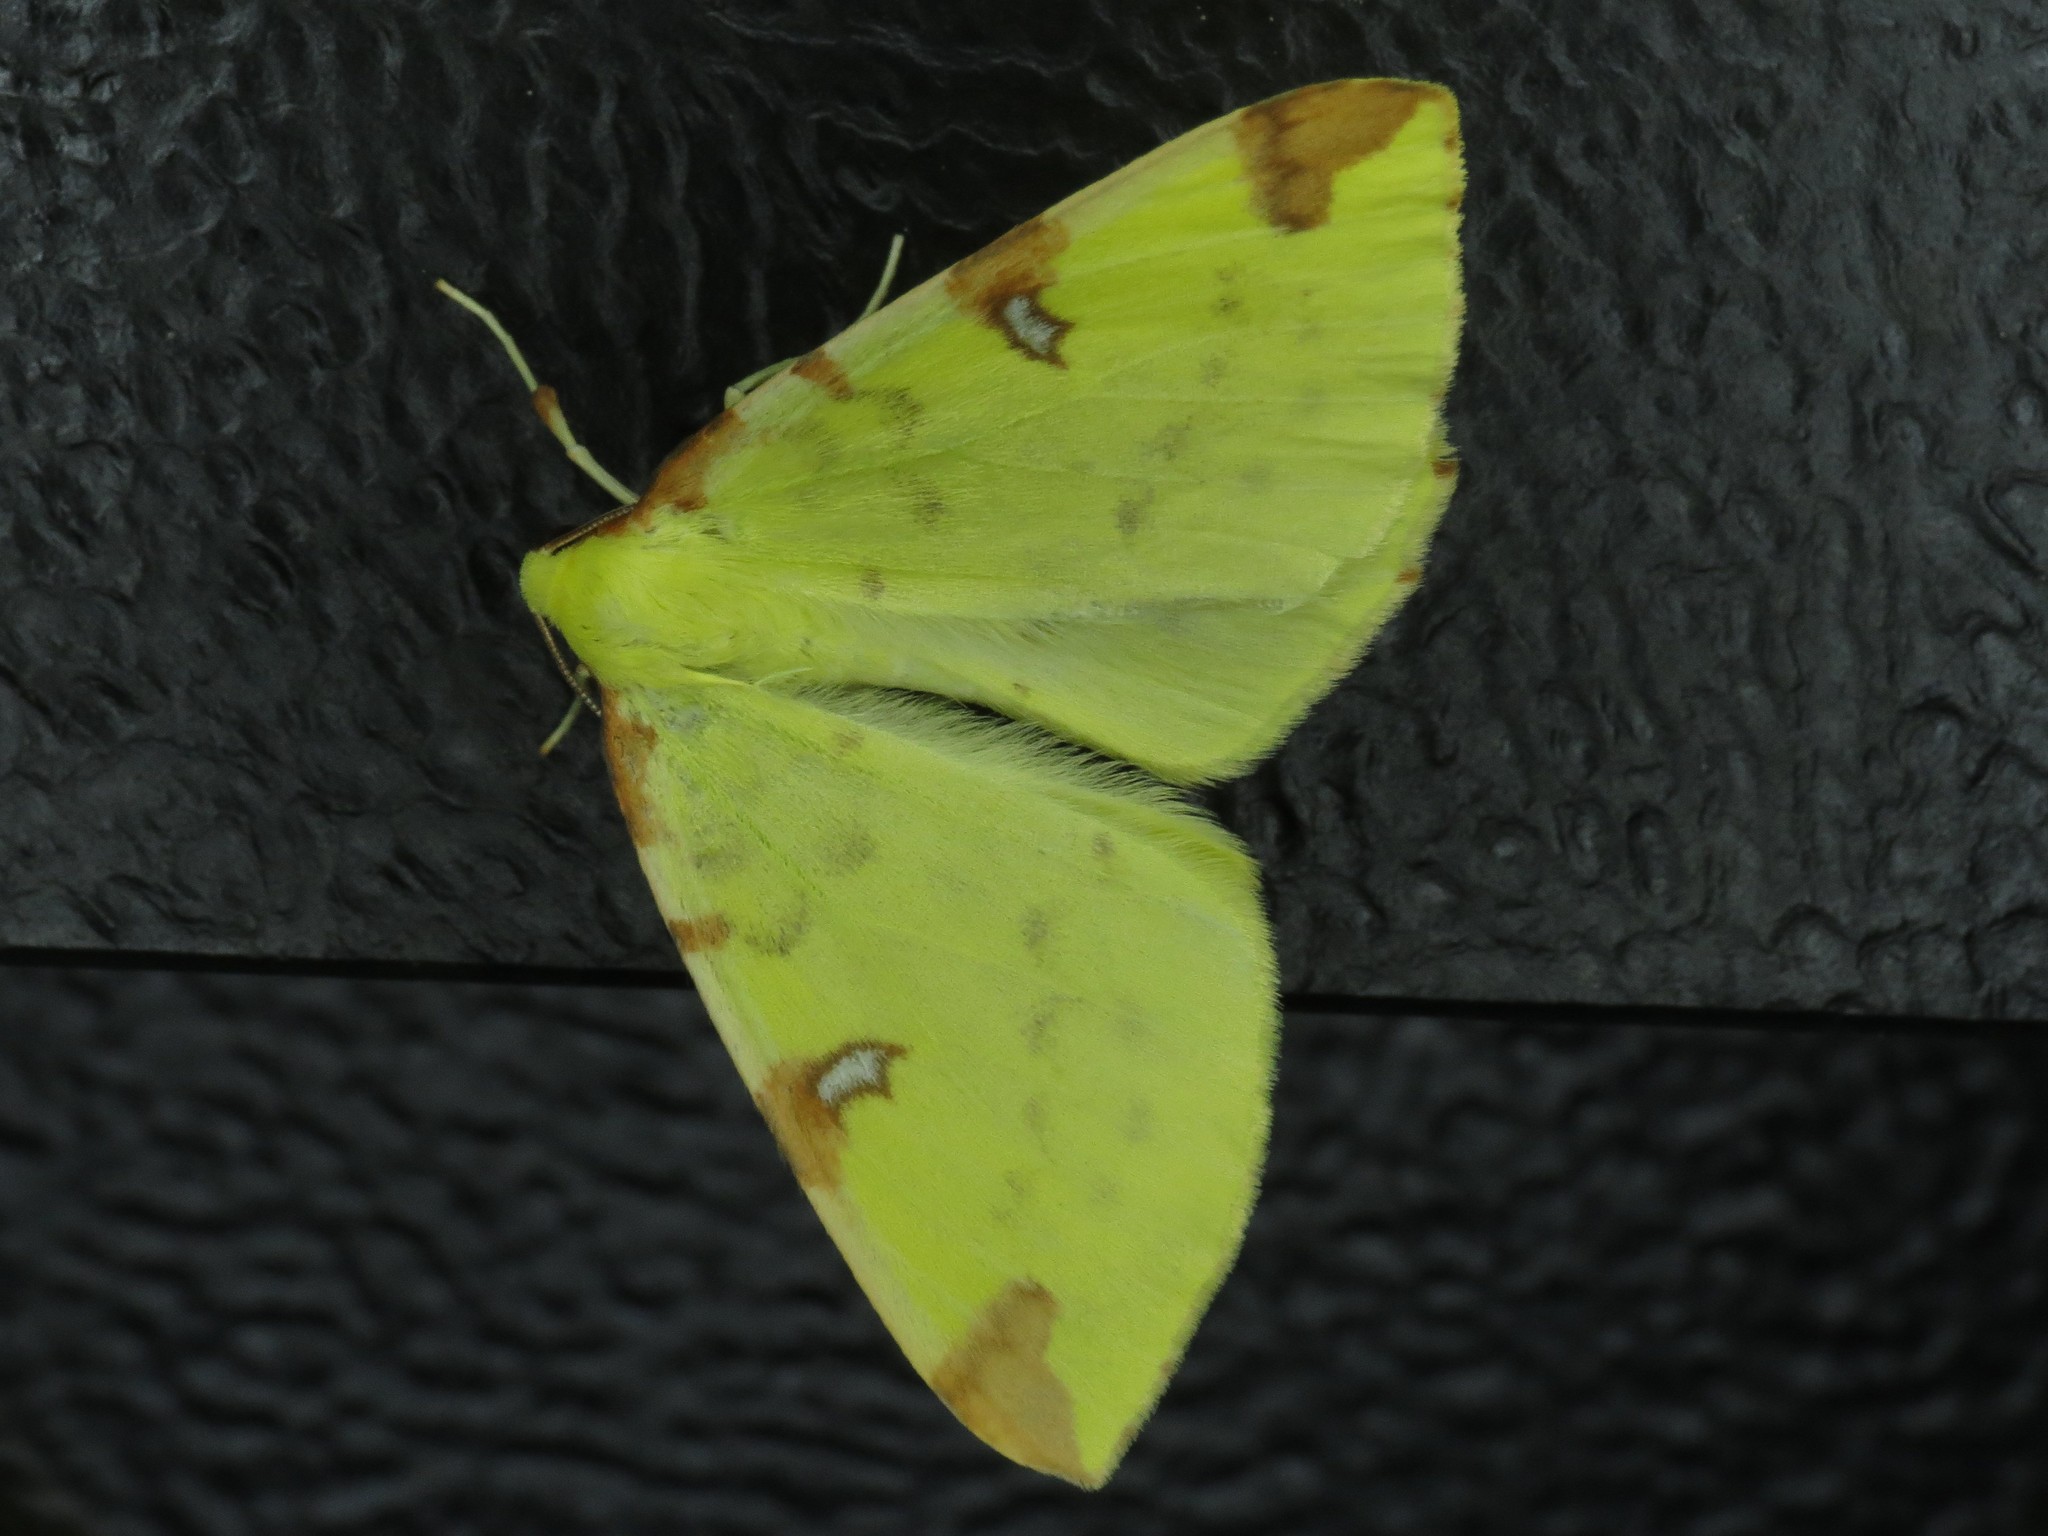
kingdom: Animalia
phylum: Arthropoda
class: Insecta
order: Lepidoptera
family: Geometridae
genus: Opisthograptis
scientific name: Opisthograptis luteolata
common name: Brimstone moth
